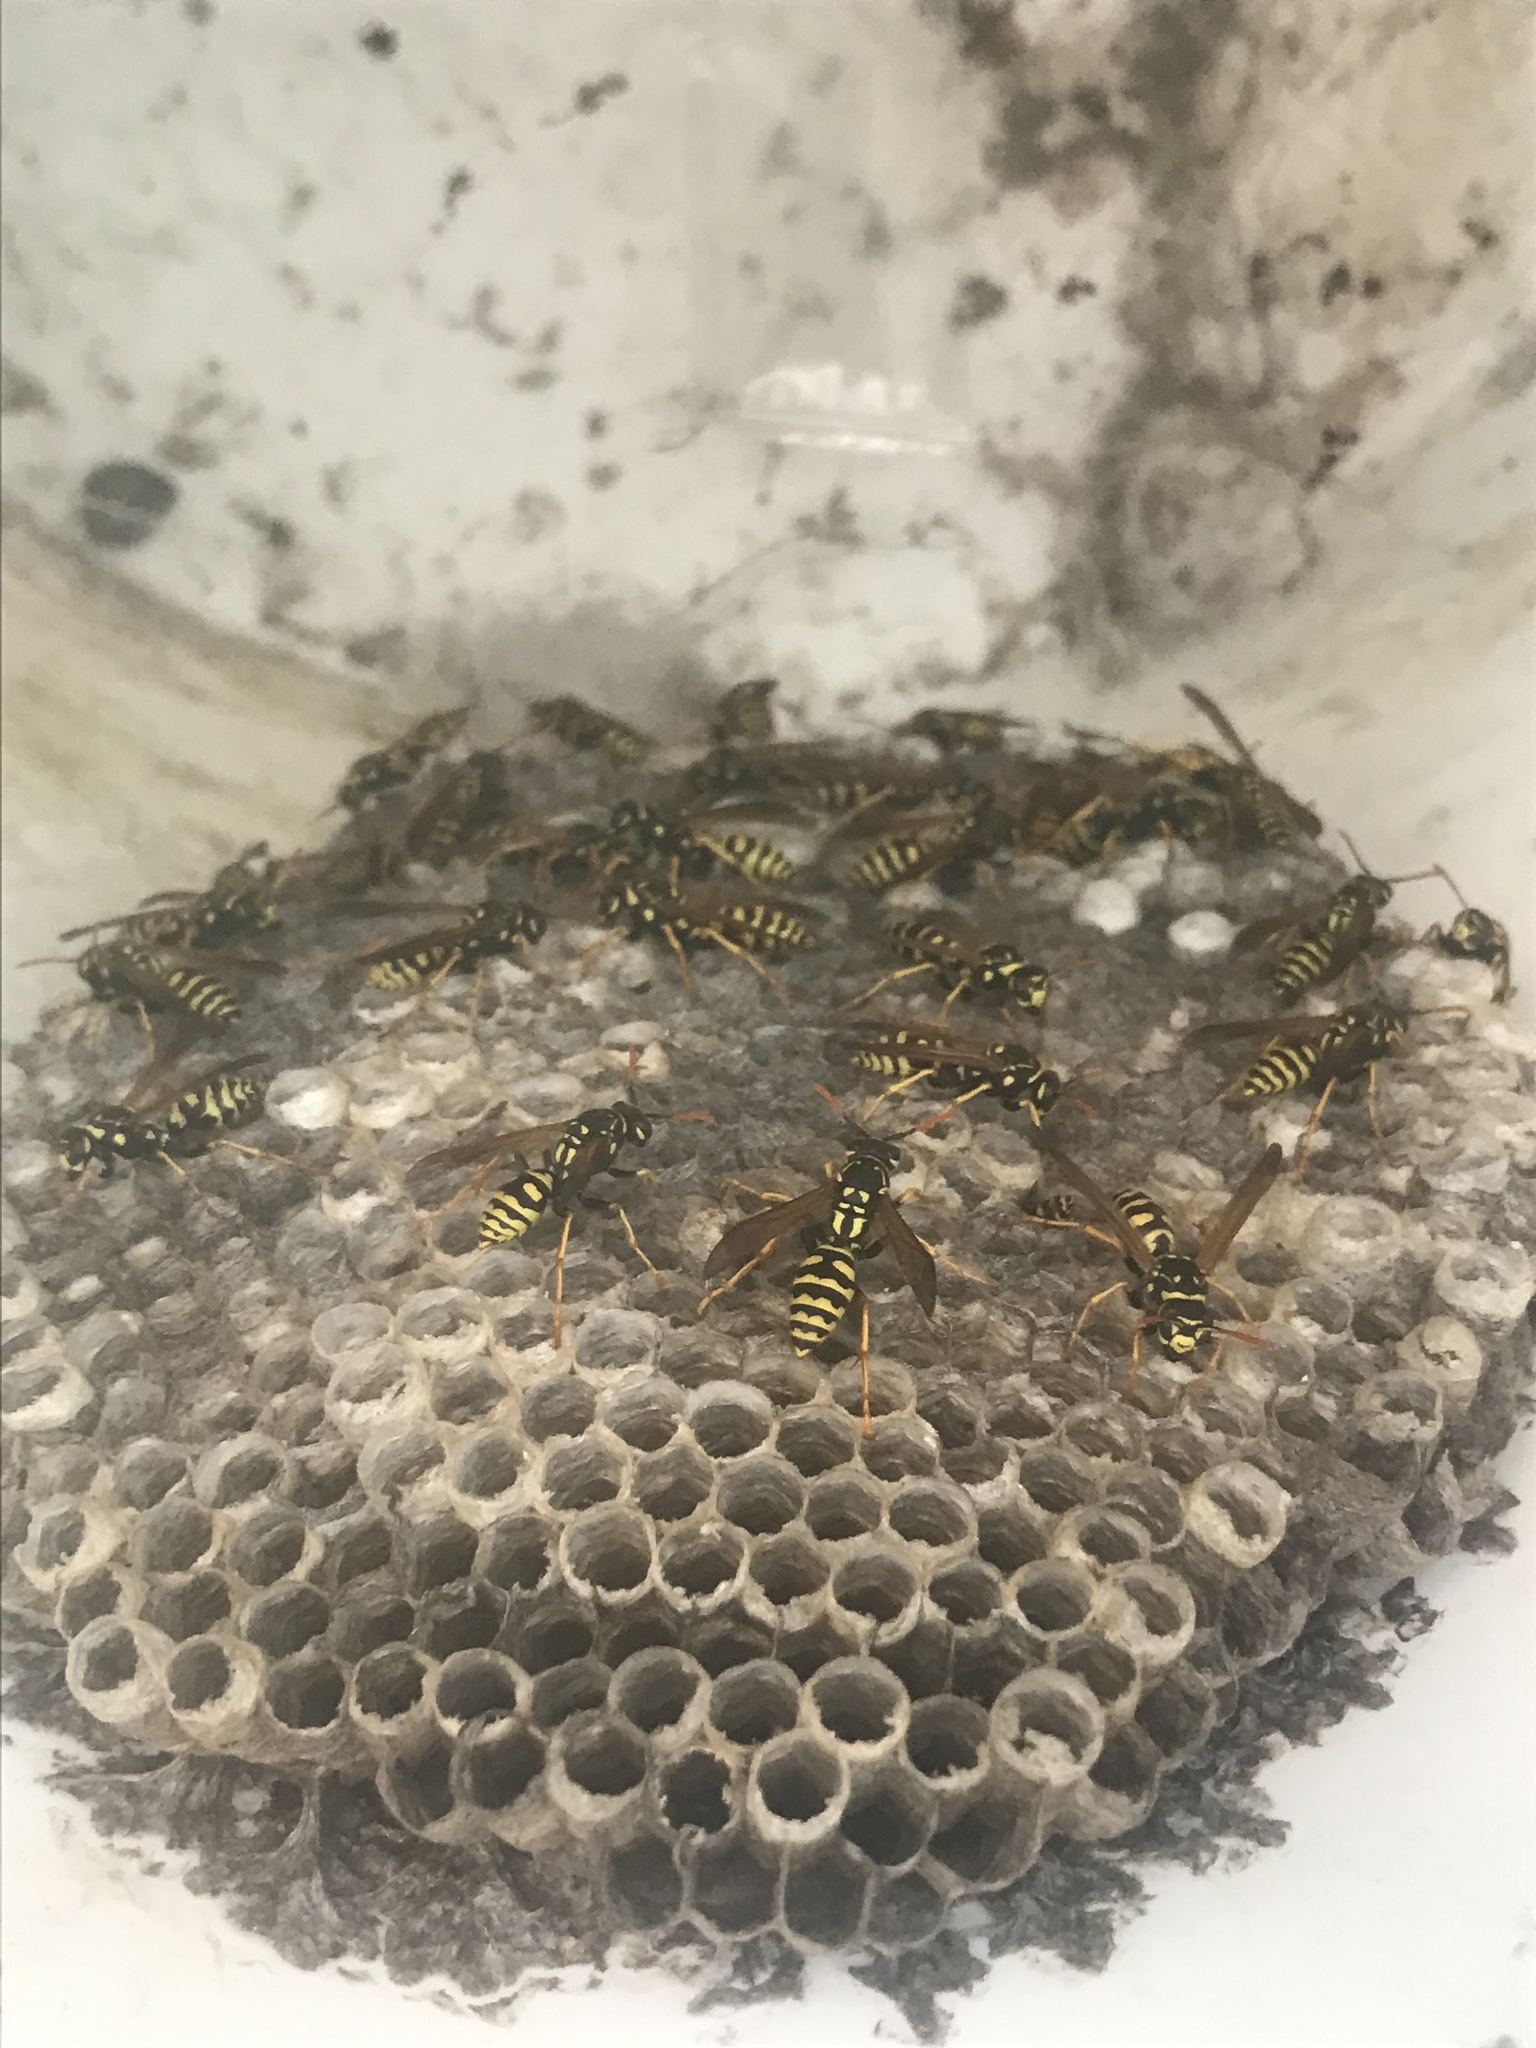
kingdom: Animalia
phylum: Arthropoda
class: Insecta
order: Hymenoptera
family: Eumenidae
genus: Polistes
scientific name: Polistes dominula
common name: Paper wasp
